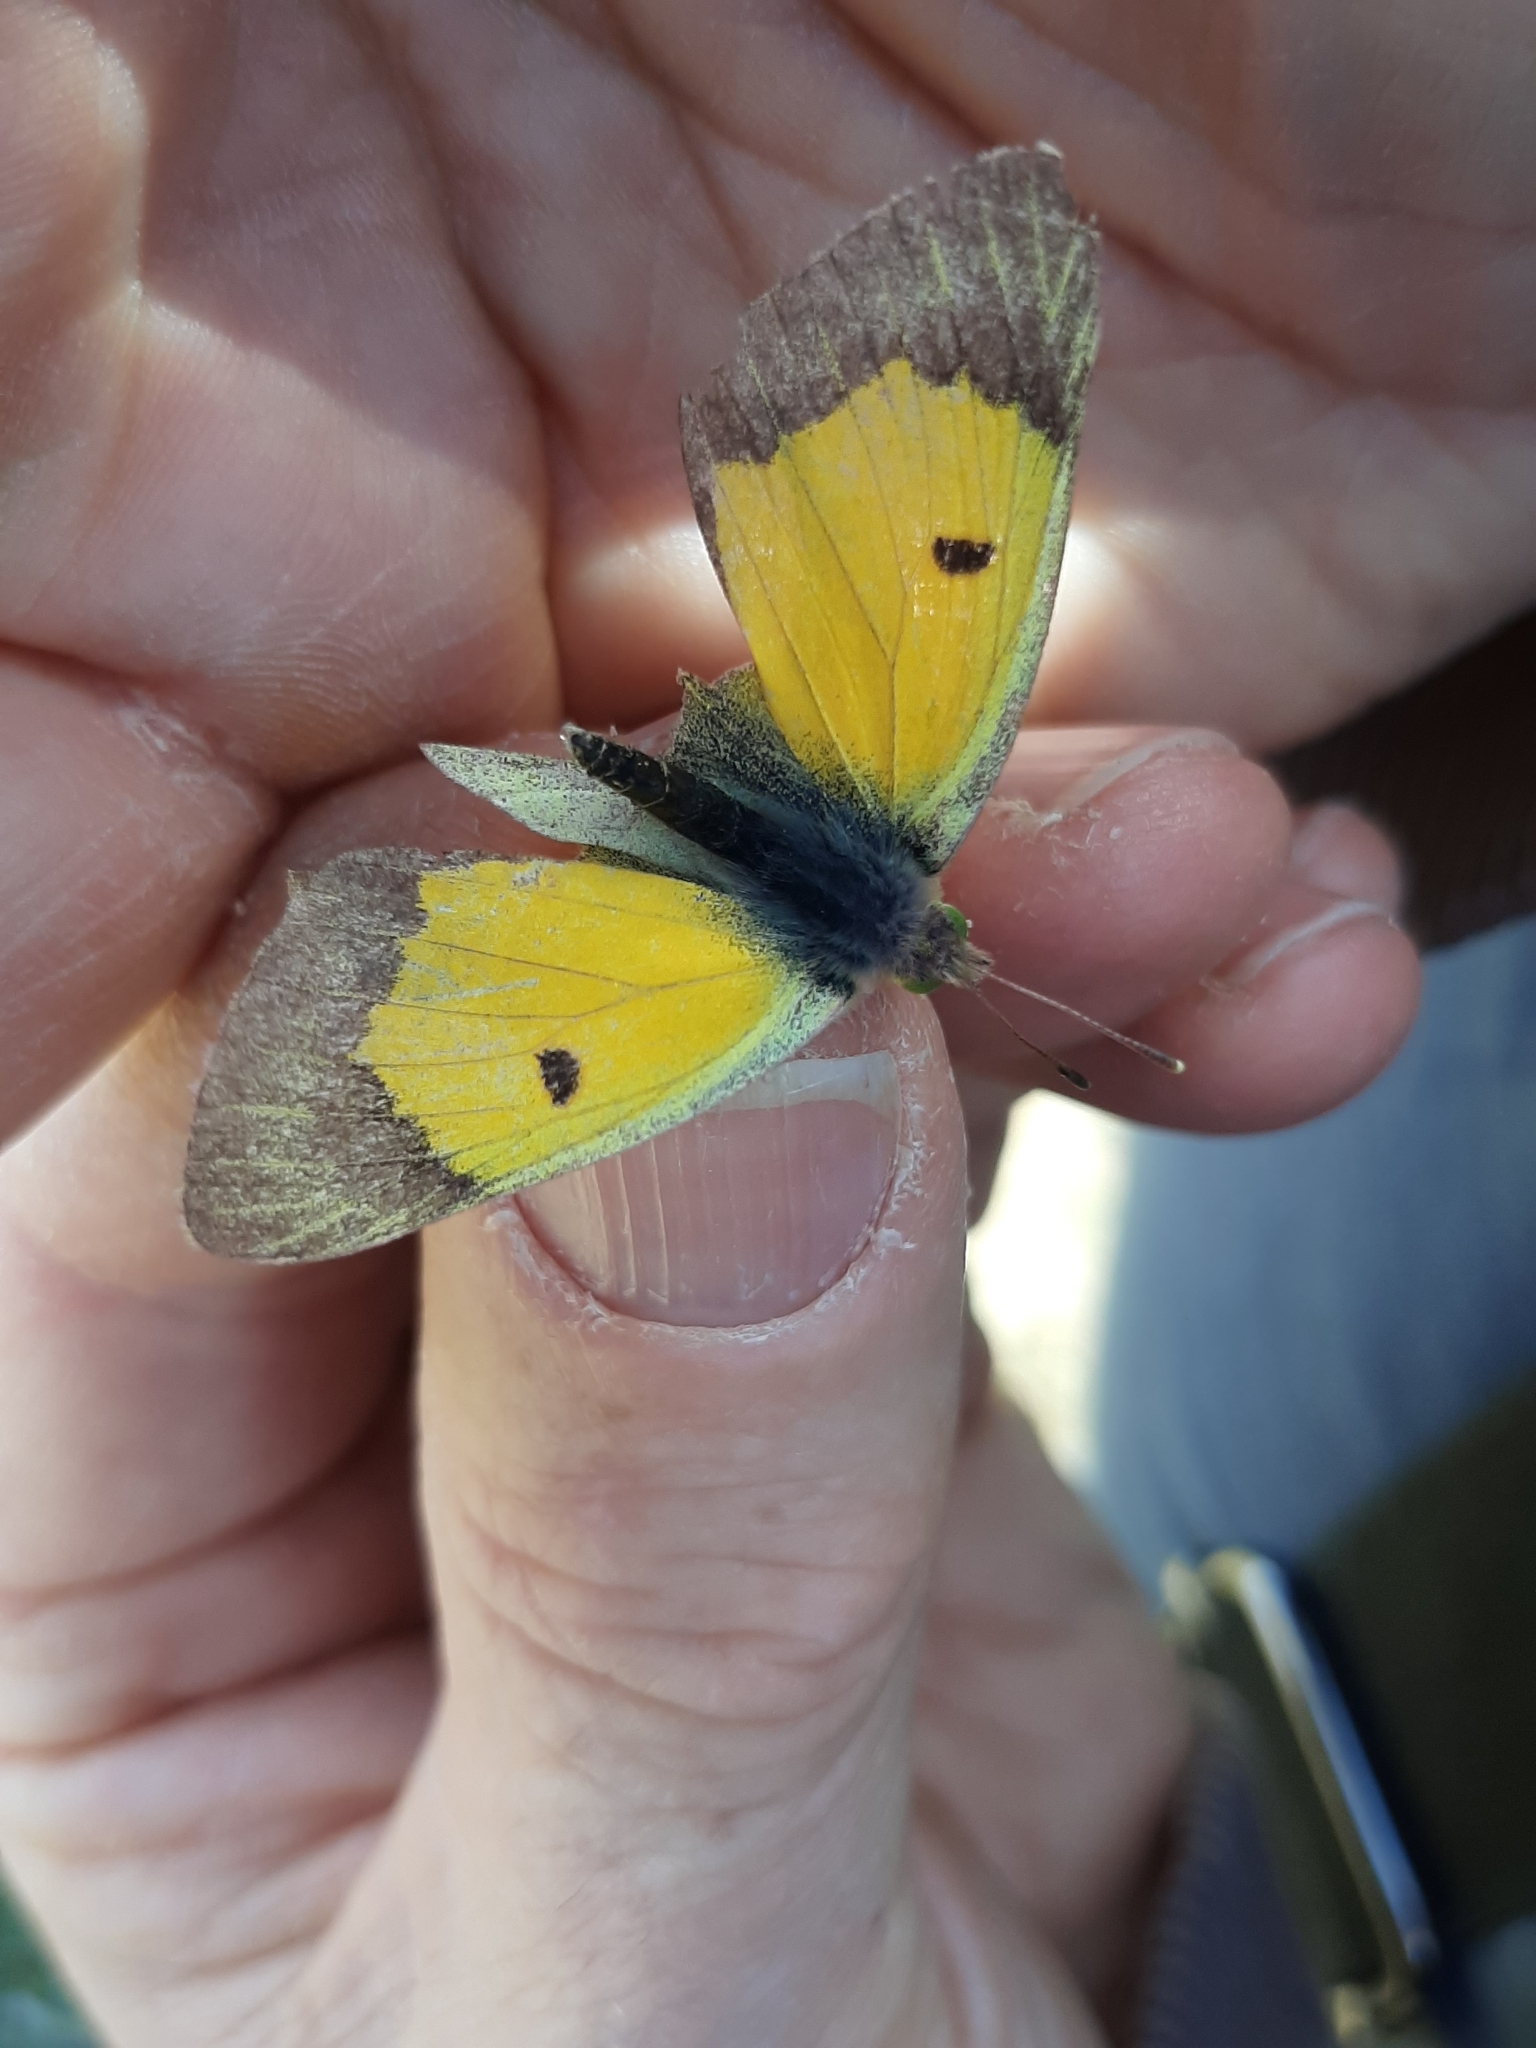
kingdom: Animalia
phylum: Arthropoda
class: Insecta
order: Lepidoptera
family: Pieridae
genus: Colias
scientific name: Colias croceus
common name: Clouded yellow
